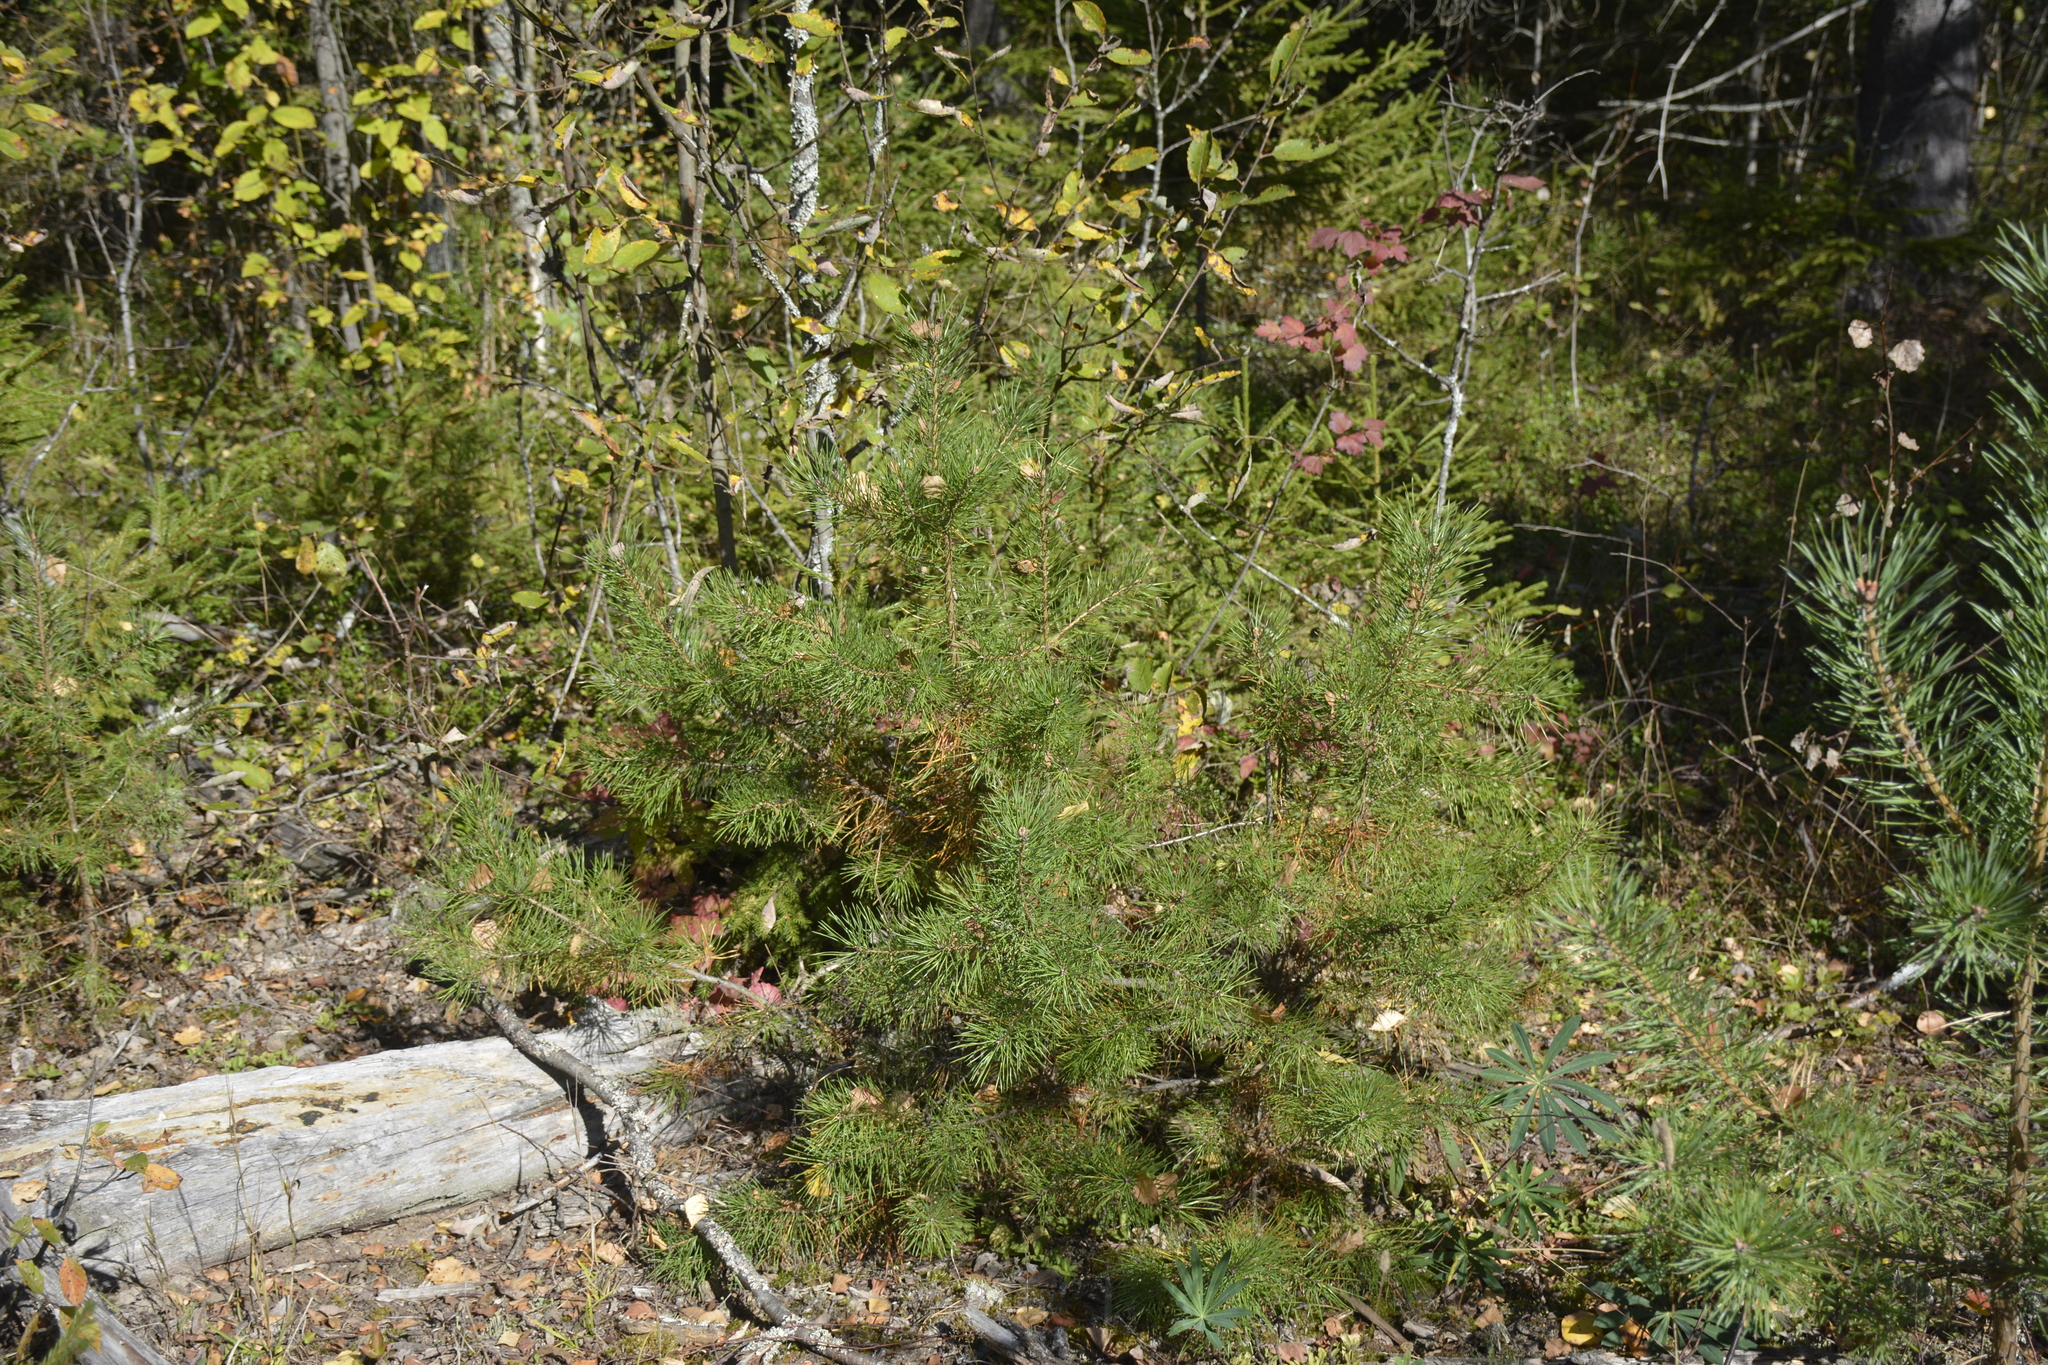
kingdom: Plantae
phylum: Tracheophyta
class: Pinopsida
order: Pinales
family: Pinaceae
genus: Pinus
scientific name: Pinus sylvestris
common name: Scots pine
